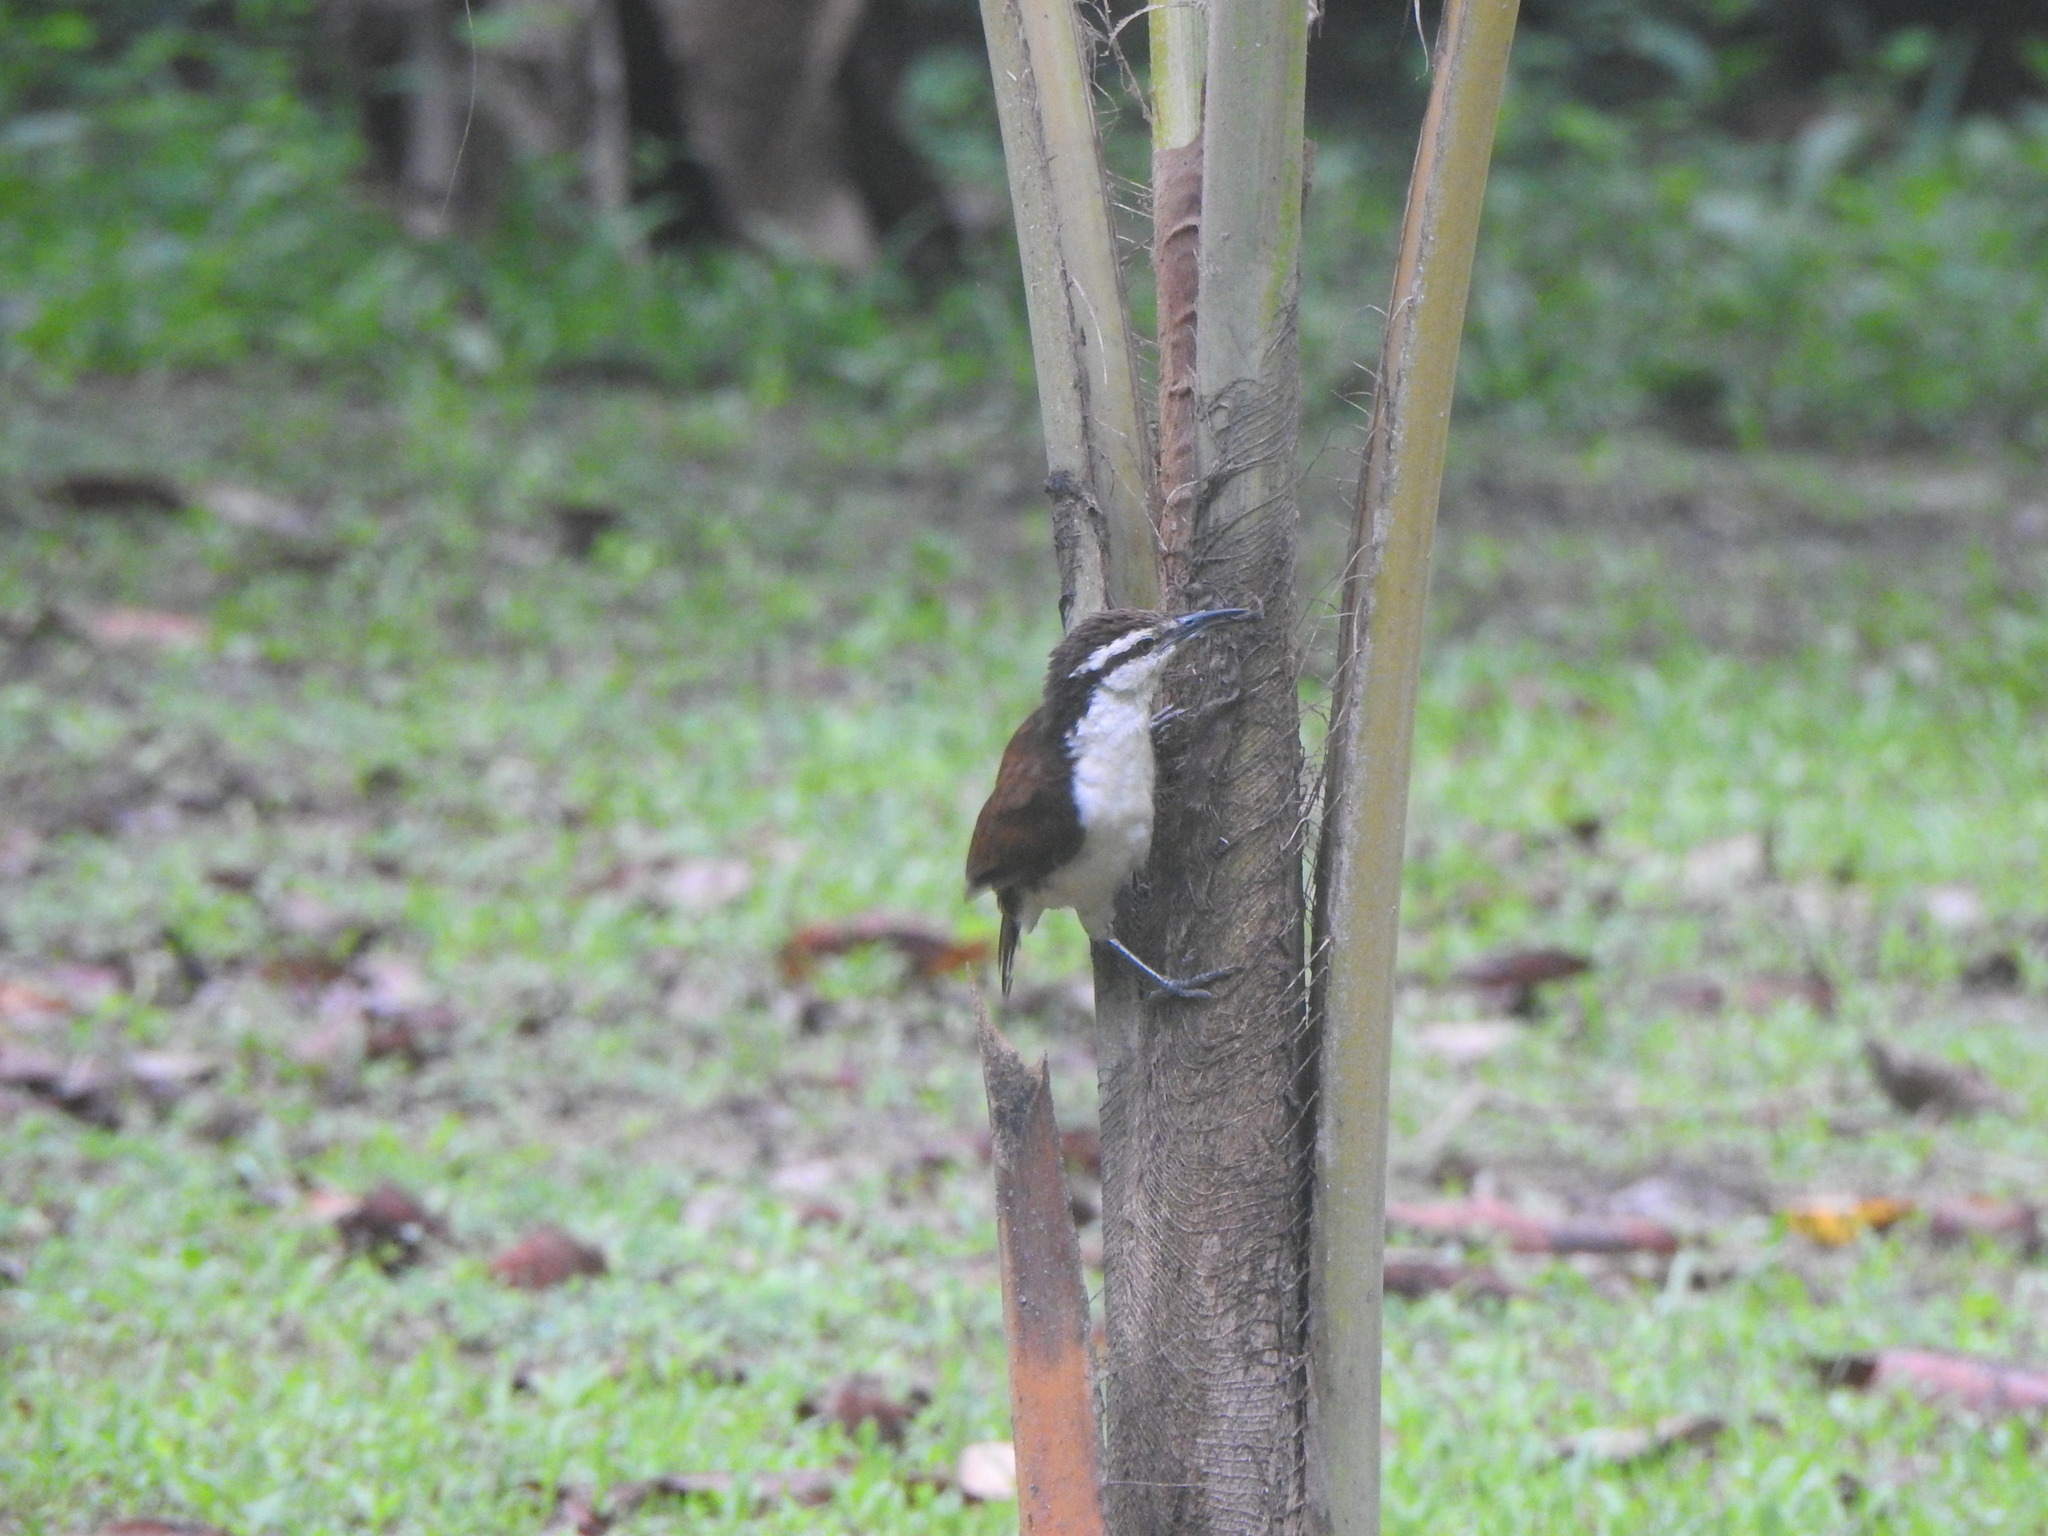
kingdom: Animalia
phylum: Chordata
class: Aves
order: Passeriformes
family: Troglodytidae
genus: Campylorhynchus
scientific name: Campylorhynchus griseus
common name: Bicolored wren
